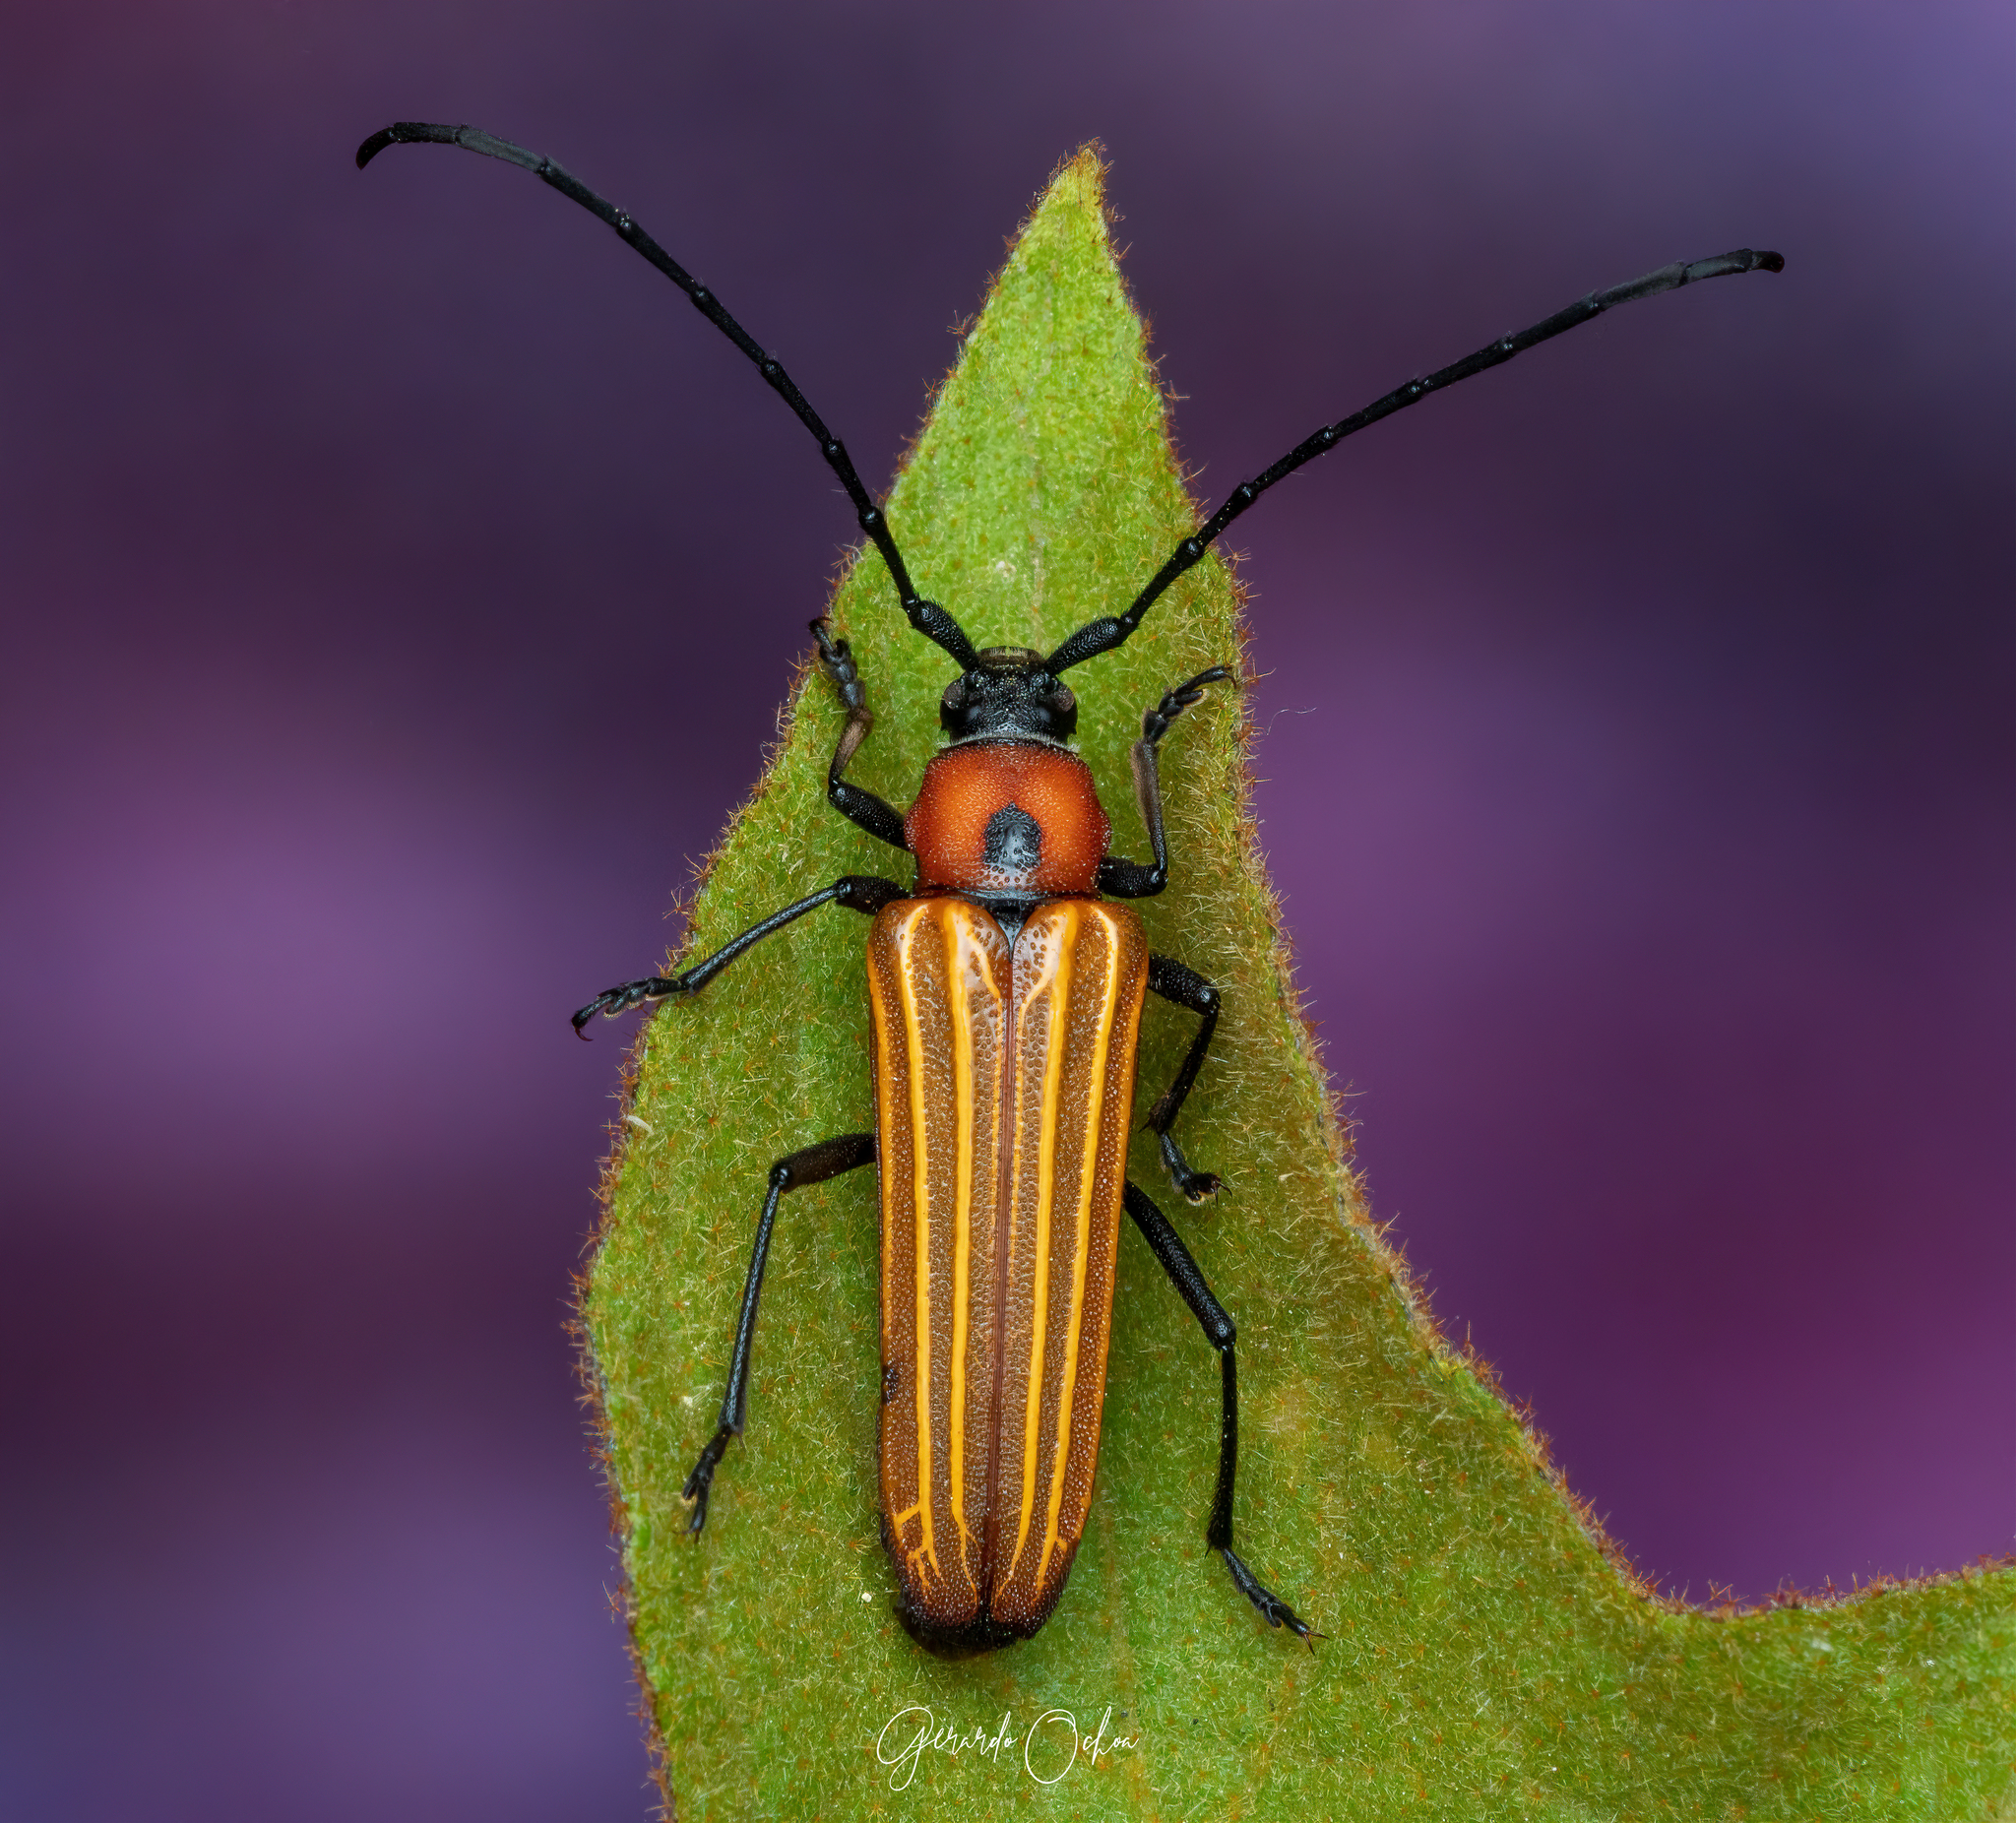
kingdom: Animalia
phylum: Arthropoda
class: Insecta
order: Coleoptera
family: Cerambycidae
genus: Ischnocnemis
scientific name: Ischnocnemis luteicollis
